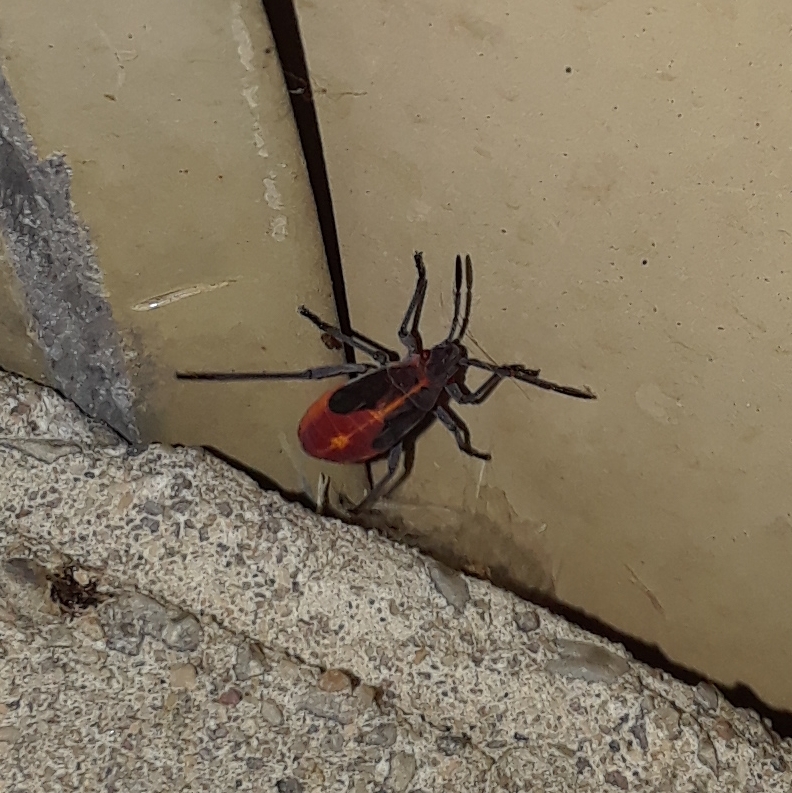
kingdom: Animalia
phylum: Arthropoda
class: Insecta
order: Hemiptera
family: Rhopalidae
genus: Boisea
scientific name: Boisea trivittata
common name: Boxelder bug
